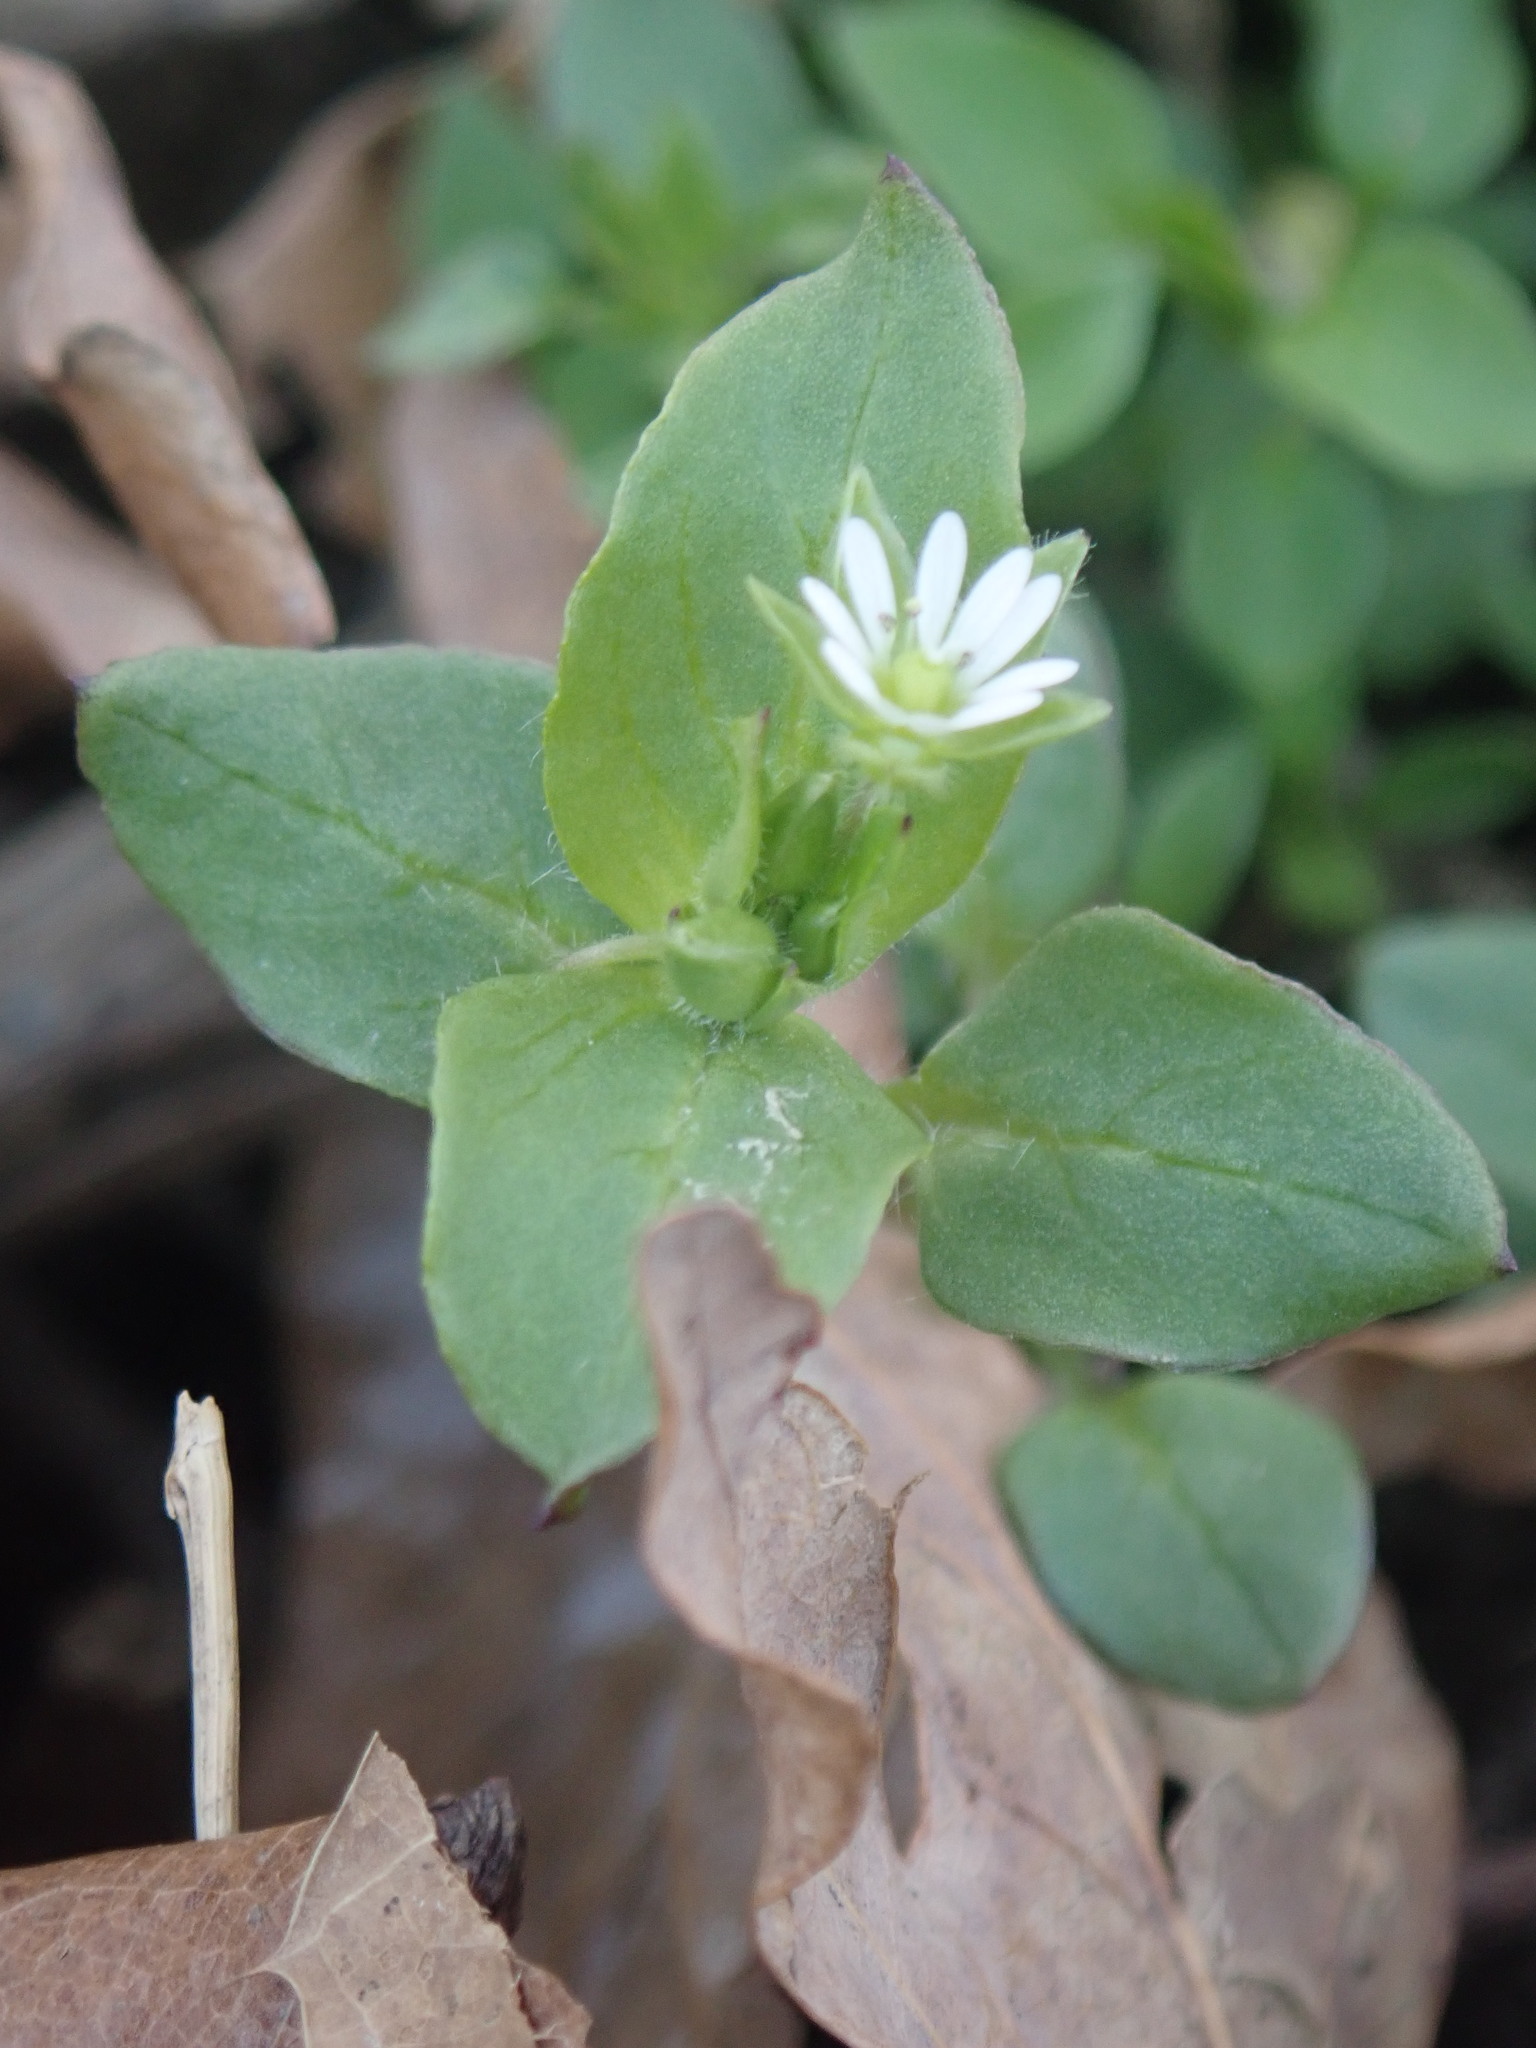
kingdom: Plantae
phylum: Tracheophyta
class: Magnoliopsida
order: Caryophyllales
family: Caryophyllaceae
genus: Stellaria
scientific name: Stellaria media
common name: Common chickweed
